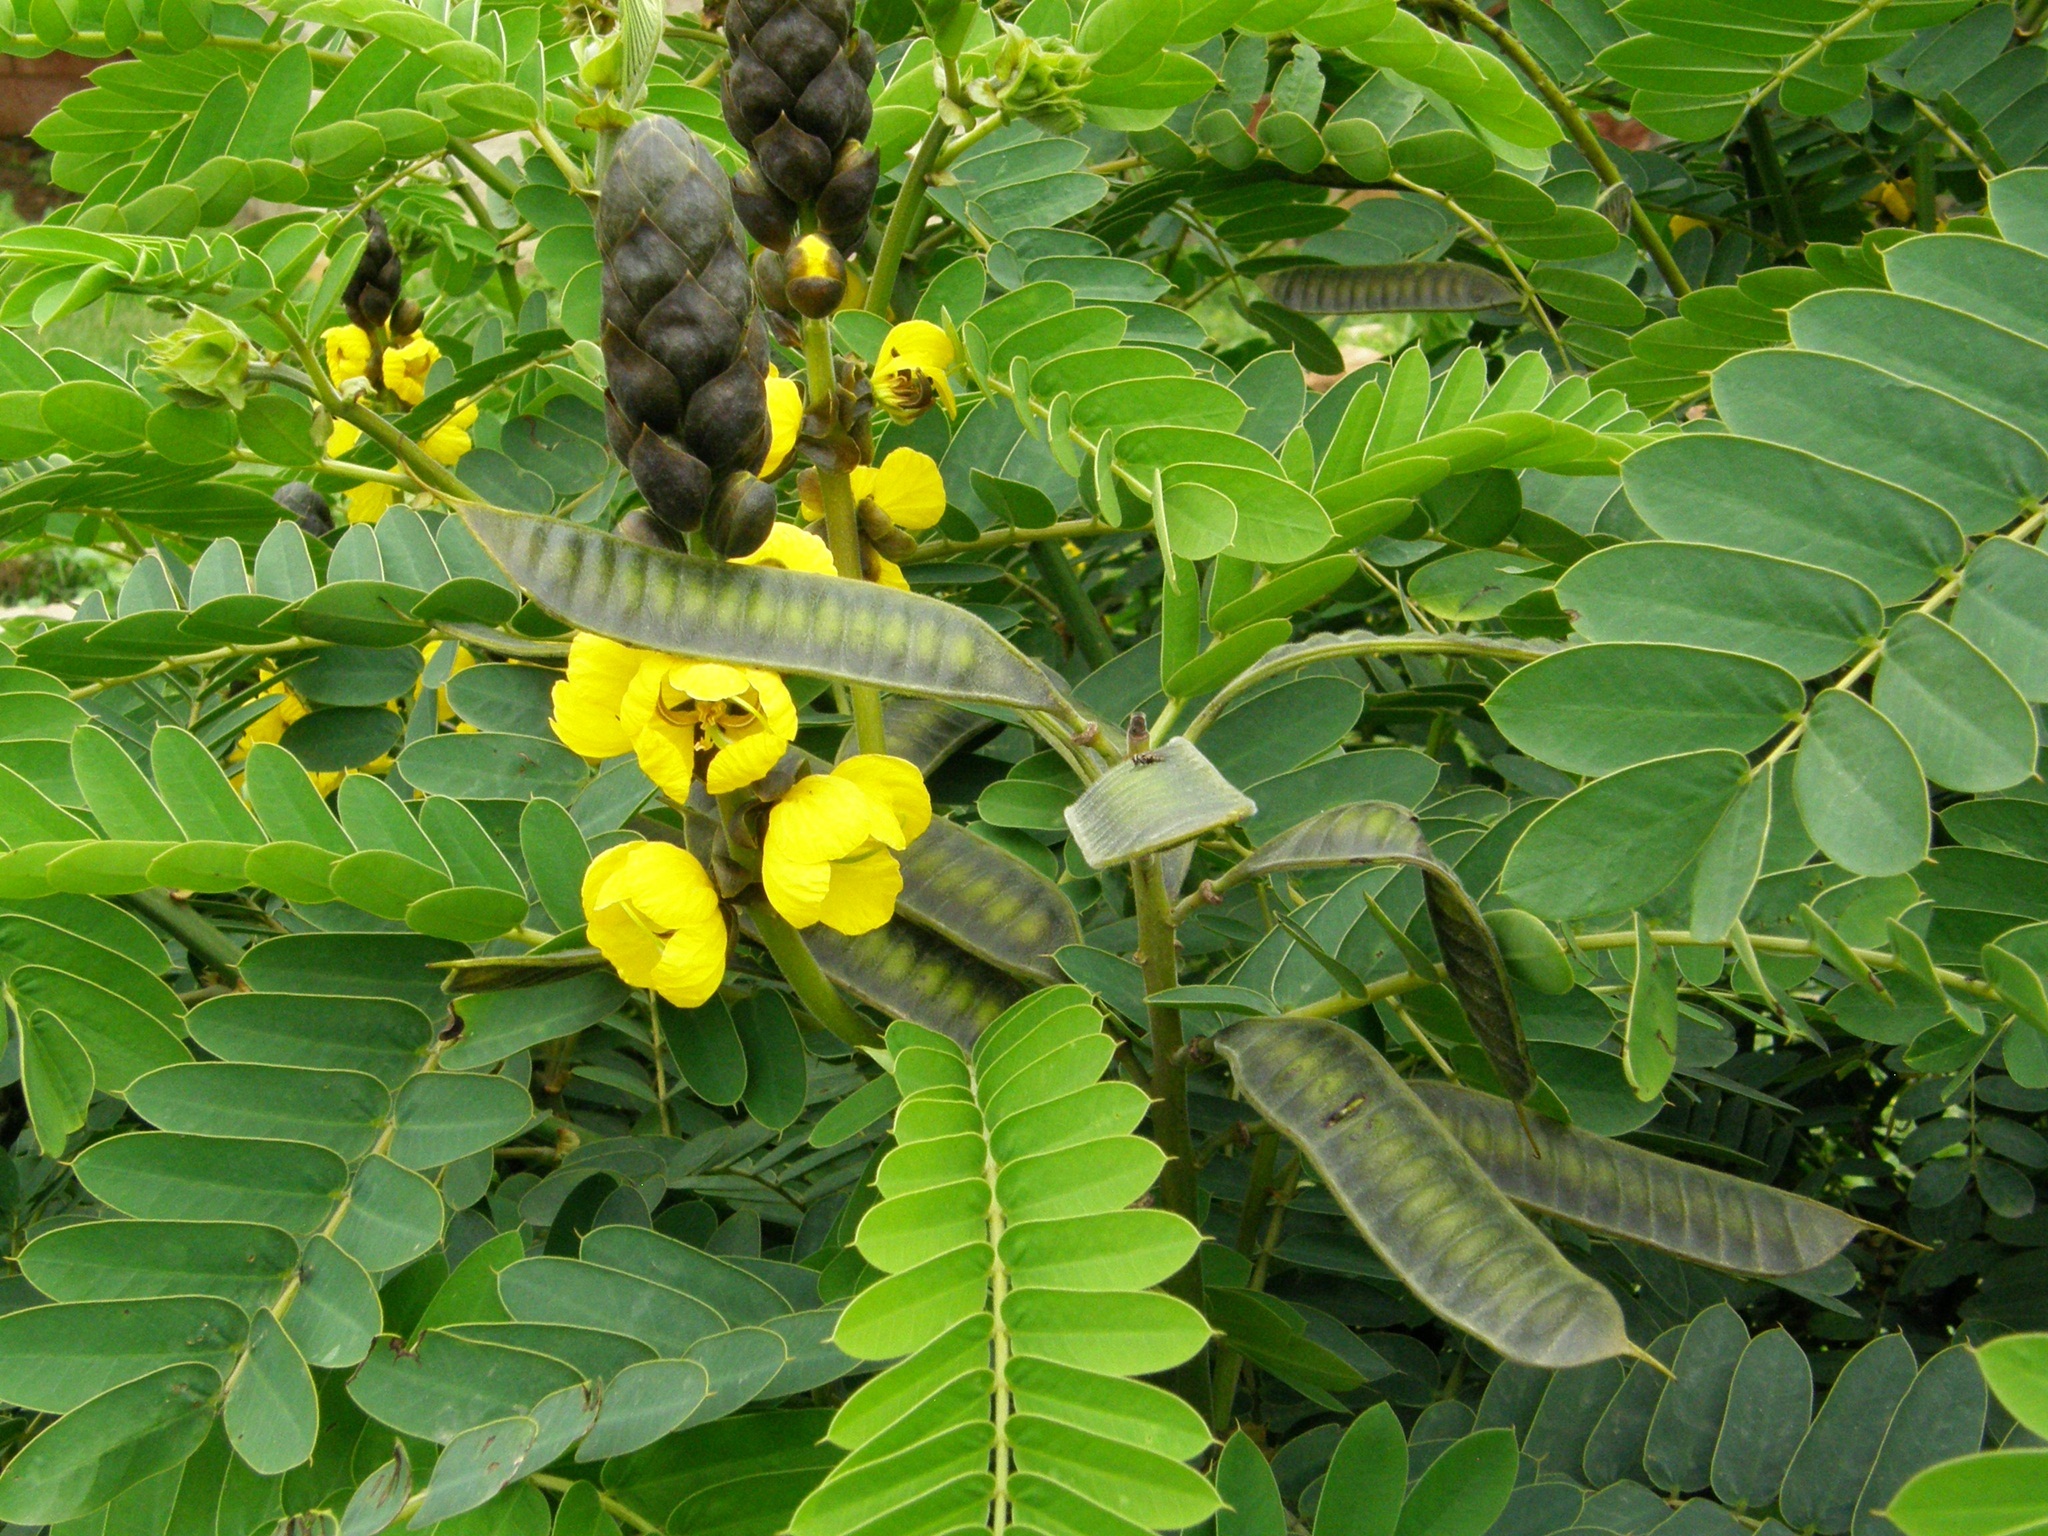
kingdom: Plantae
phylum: Tracheophyta
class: Magnoliopsida
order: Fabales
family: Fabaceae
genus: Senna
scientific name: Senna didymobotrya
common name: African senna
